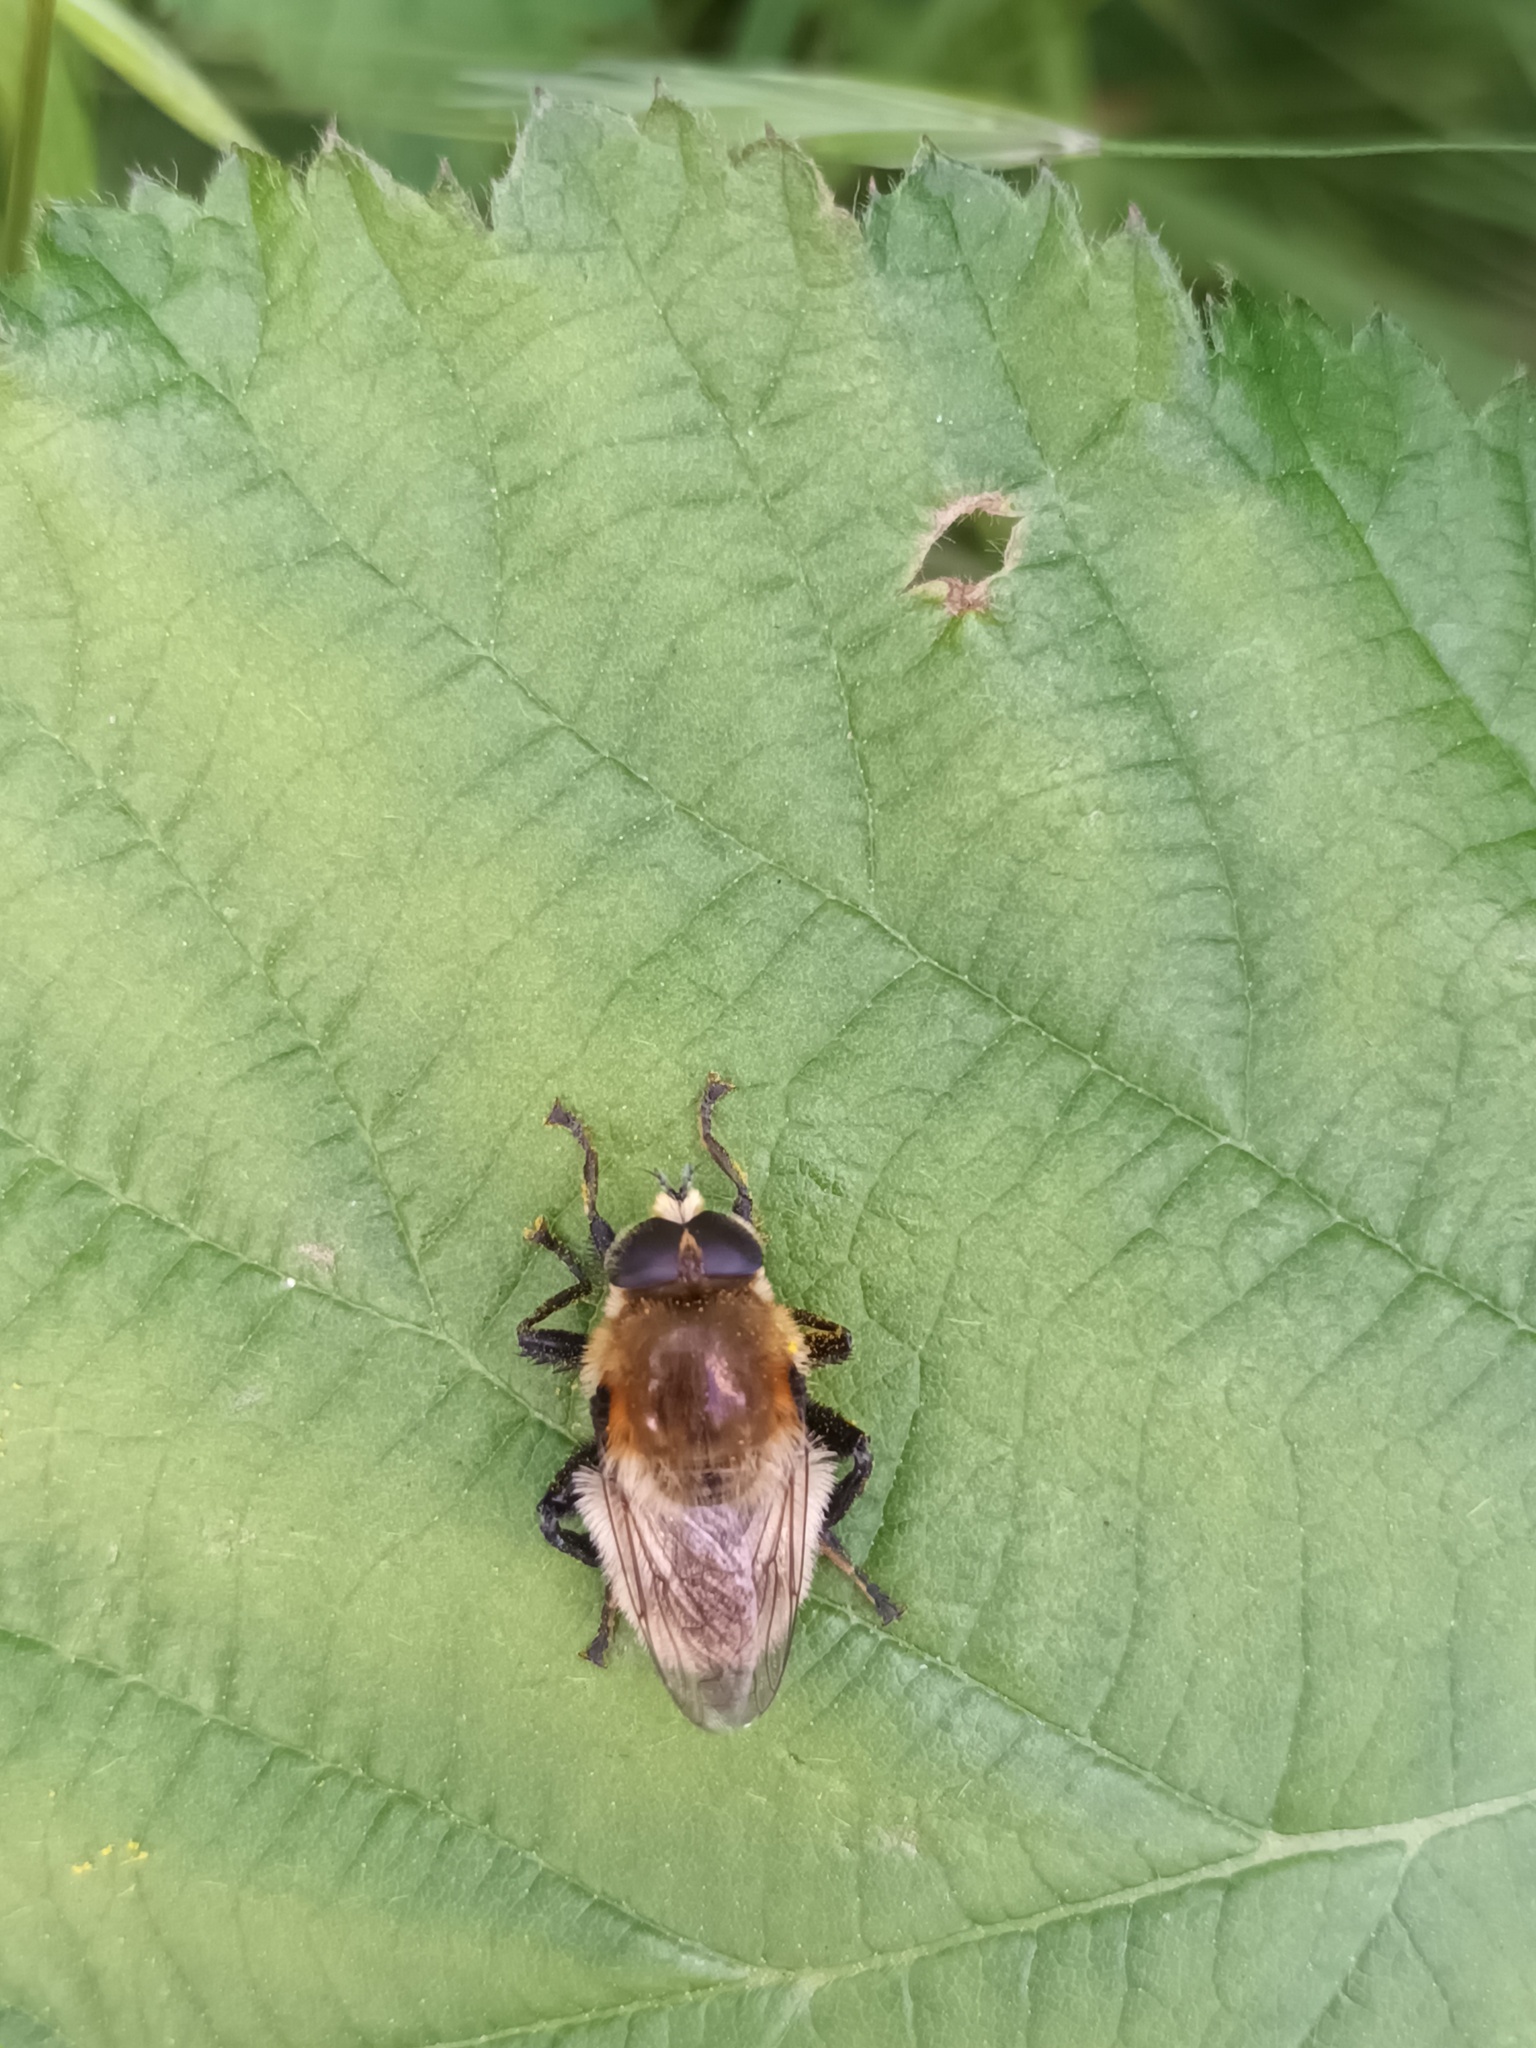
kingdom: Animalia
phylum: Arthropoda
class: Insecta
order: Diptera
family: Syrphidae
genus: Merodon
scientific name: Merodon equestris
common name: Greater bulb-fly
